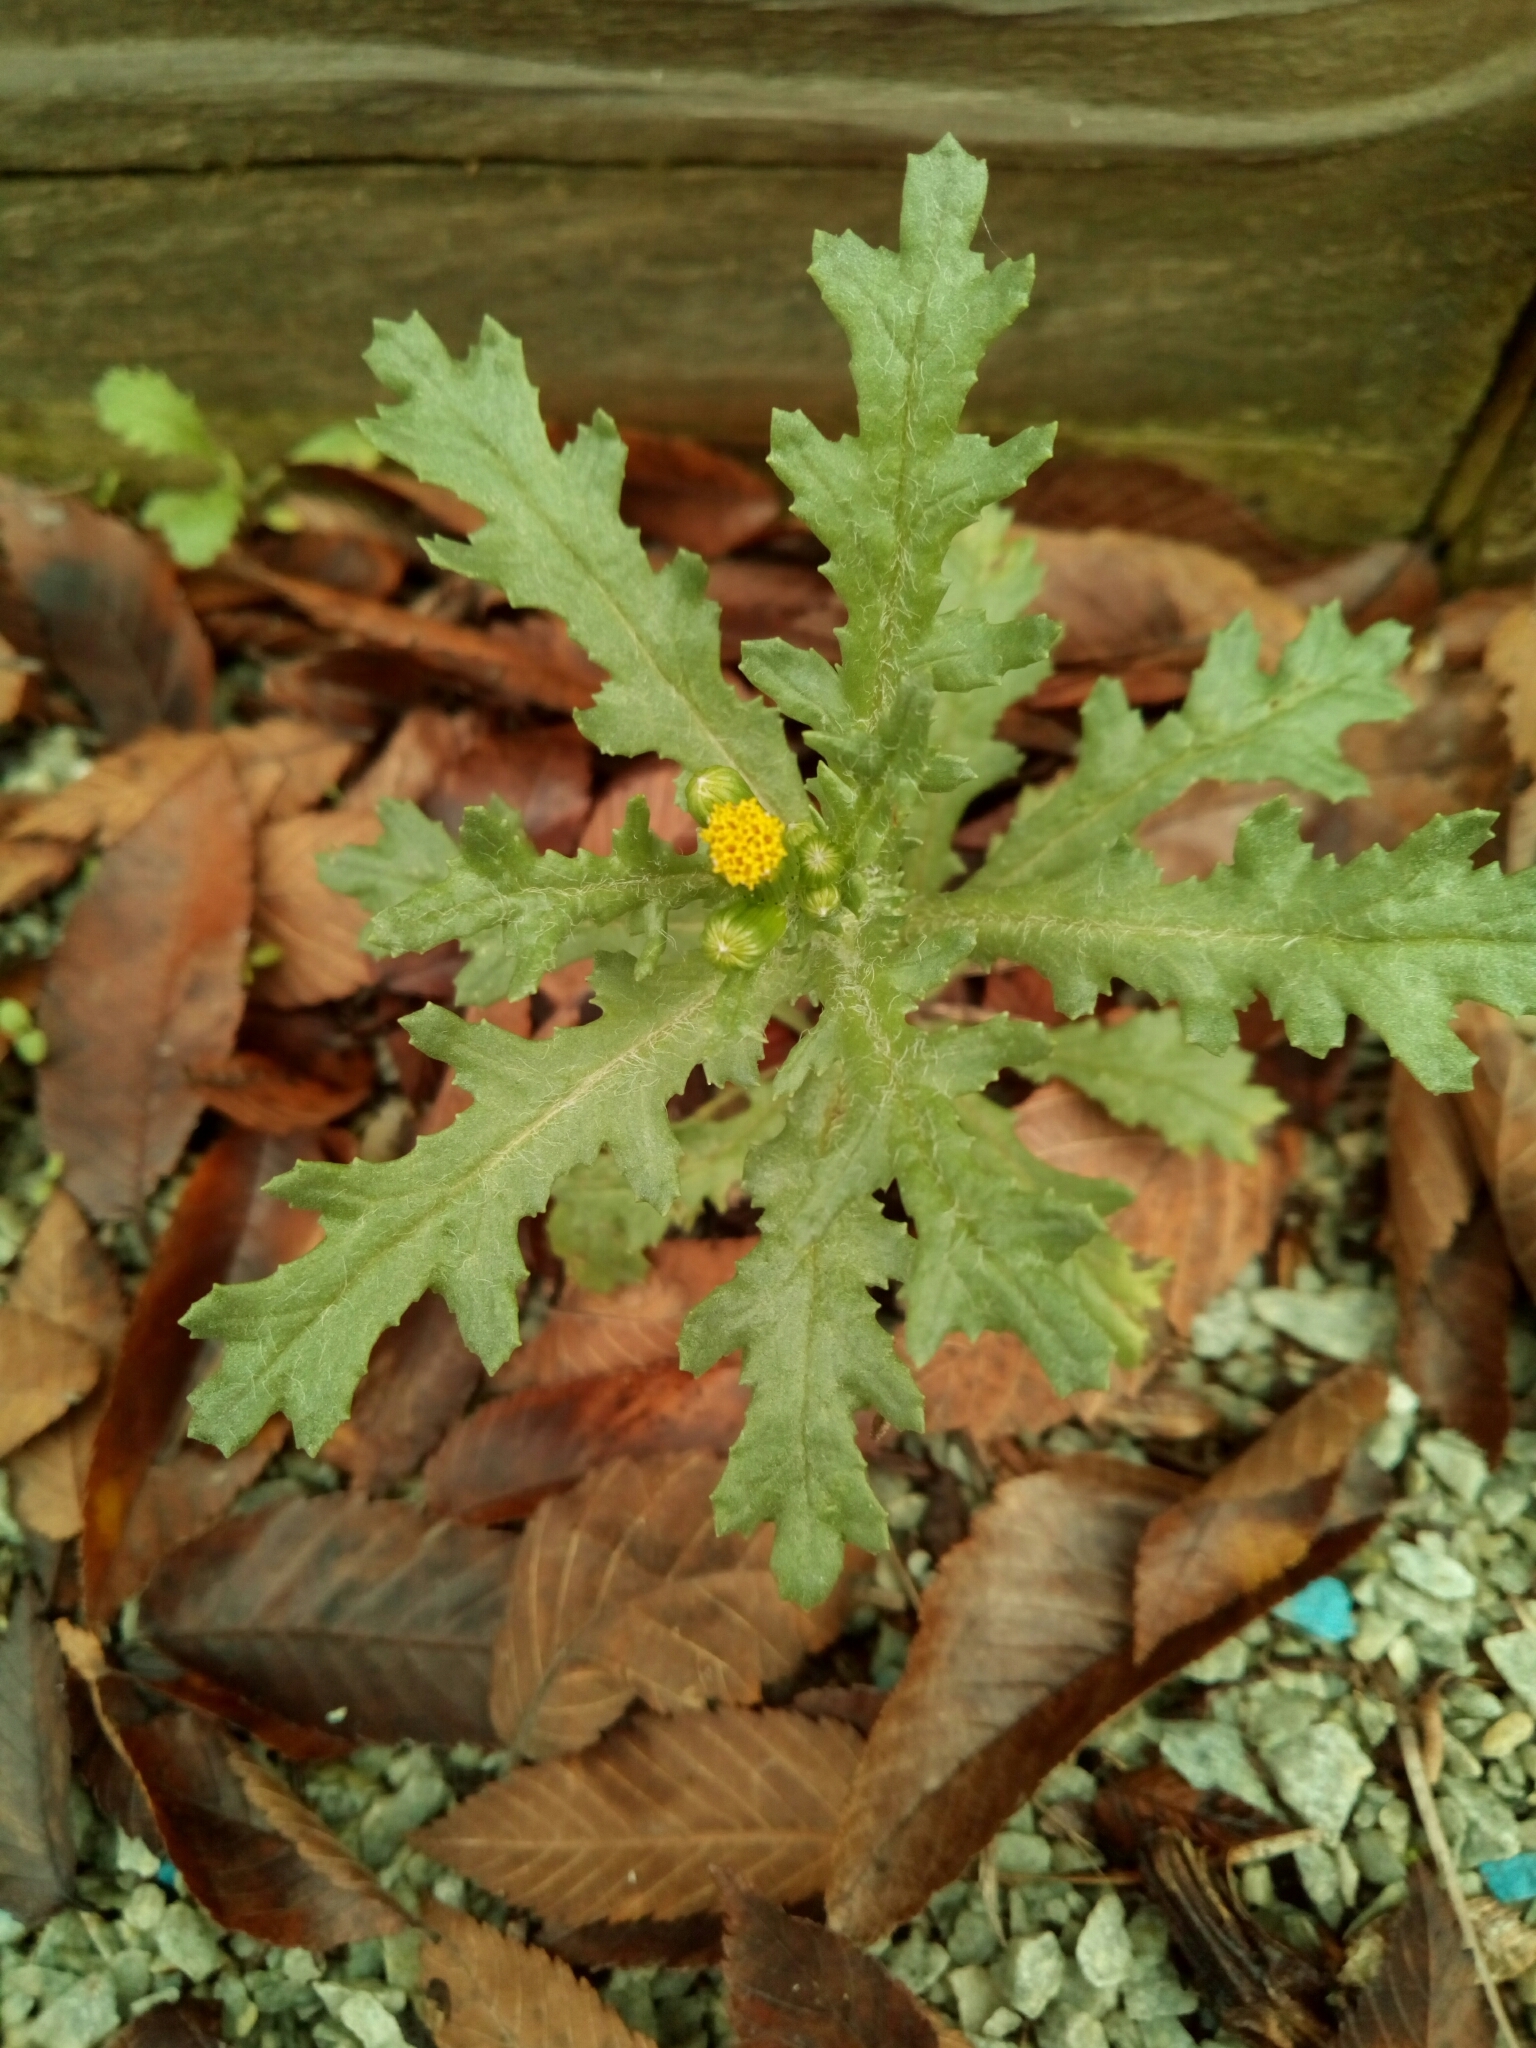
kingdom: Plantae
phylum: Tracheophyta
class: Magnoliopsida
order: Asterales
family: Asteraceae
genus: Senecio
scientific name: Senecio vulgaris
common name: Old-man-in-the-spring
